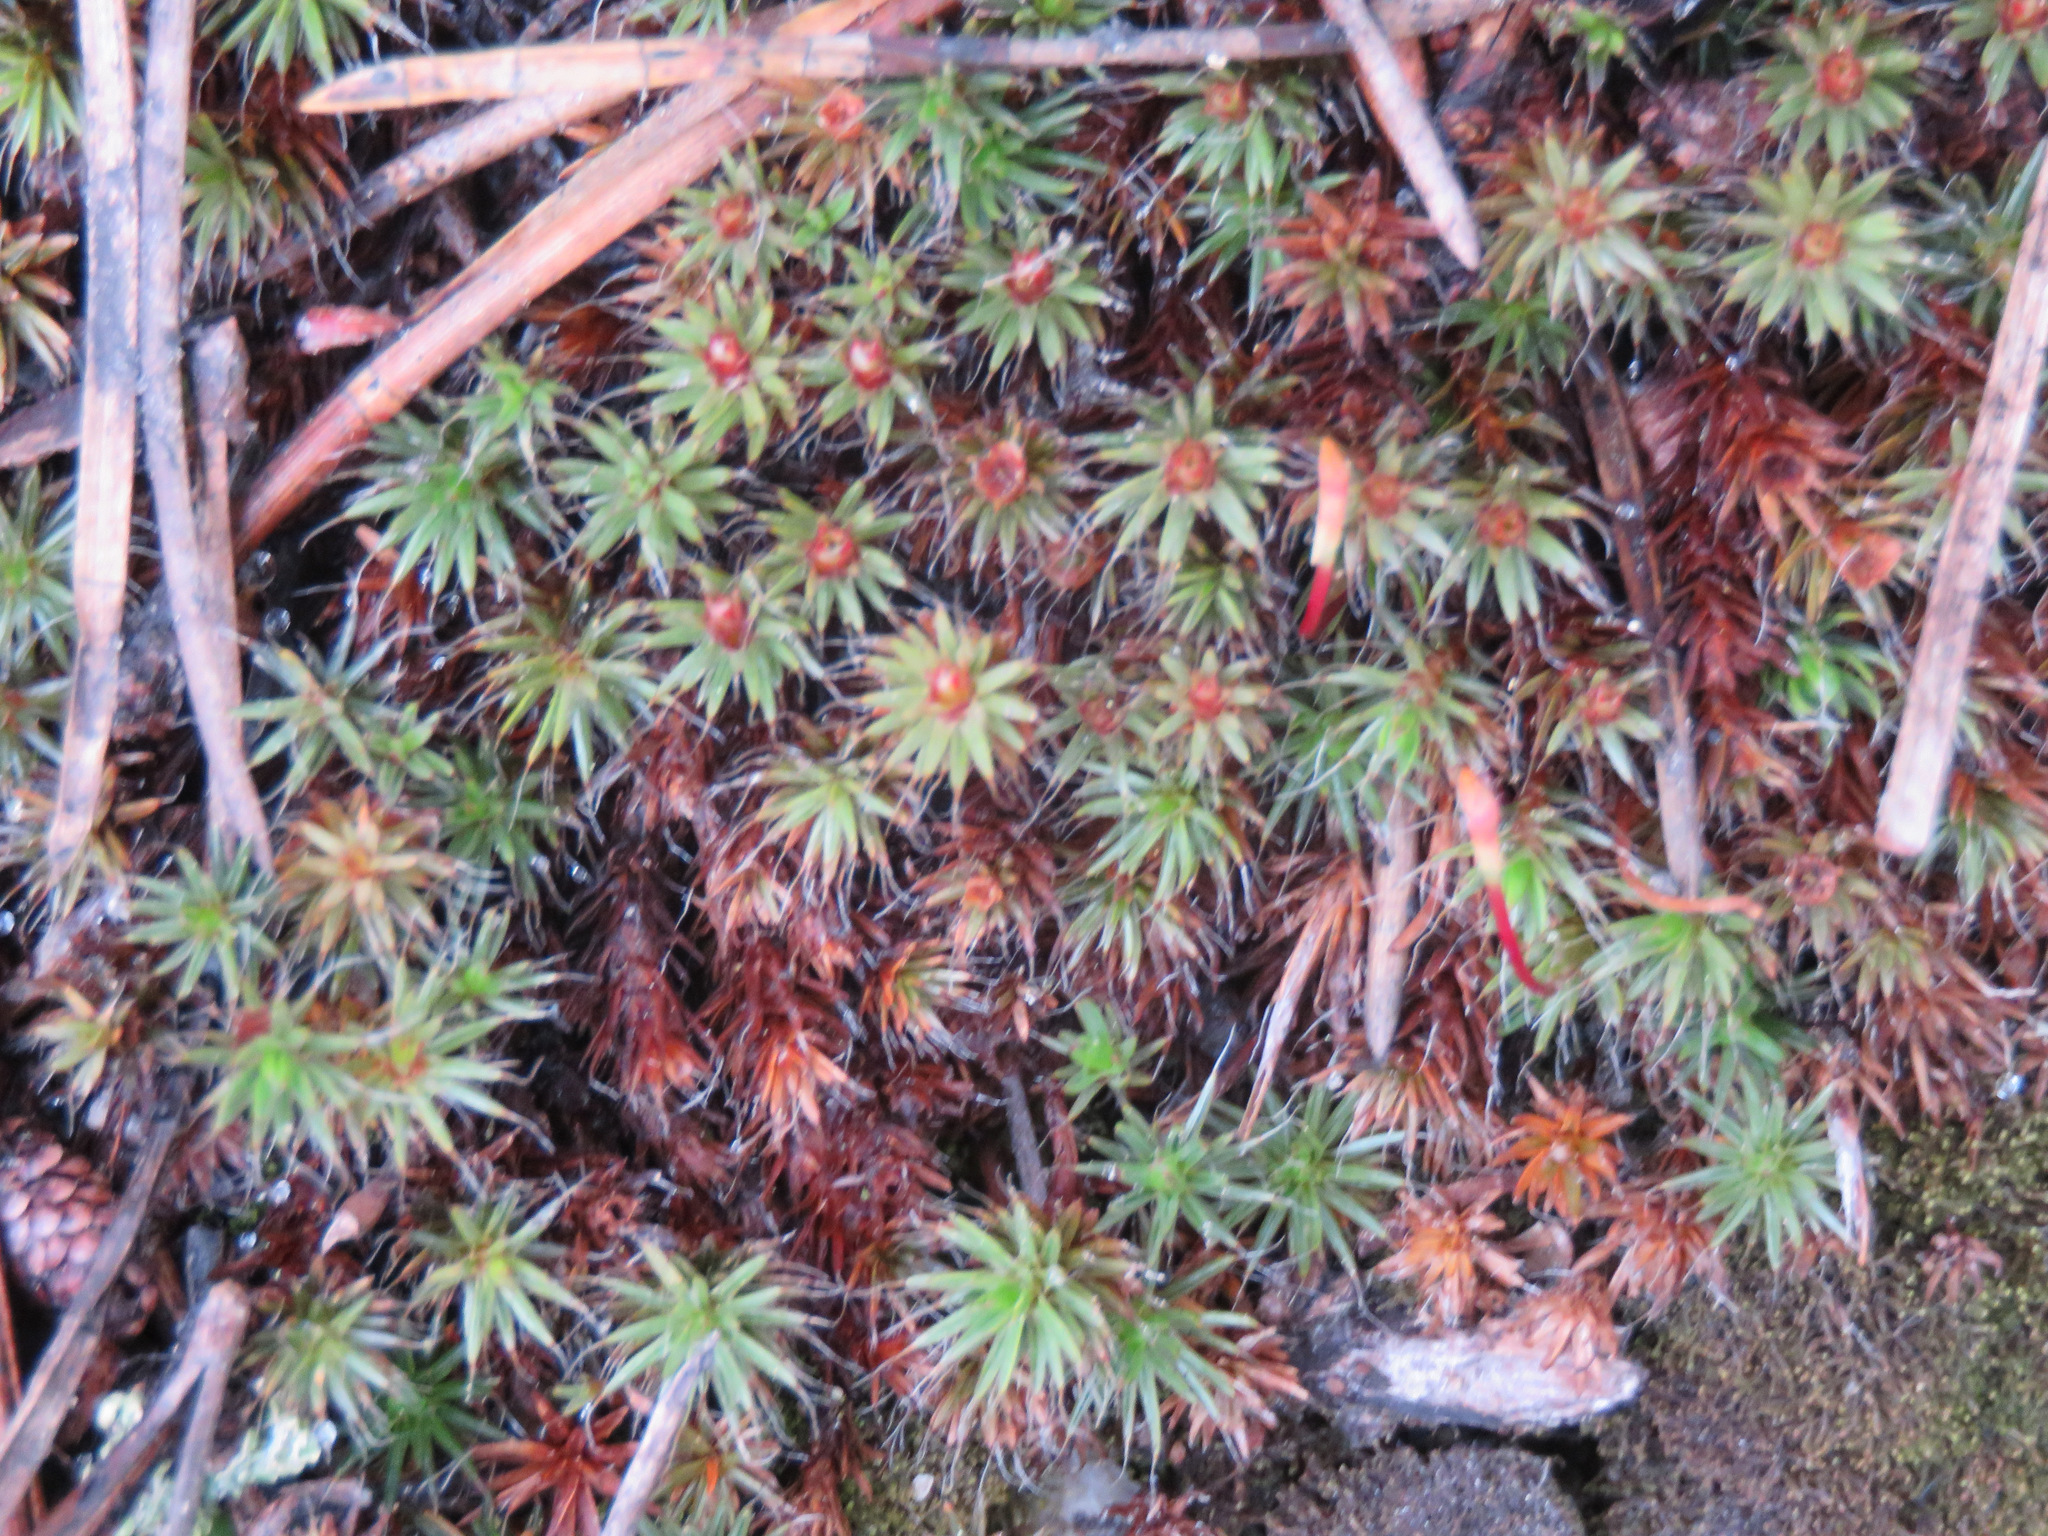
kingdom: Plantae
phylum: Bryophyta
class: Polytrichopsida
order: Polytrichales
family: Polytrichaceae
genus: Polytrichum
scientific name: Polytrichum piliferum
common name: Bristly haircap
